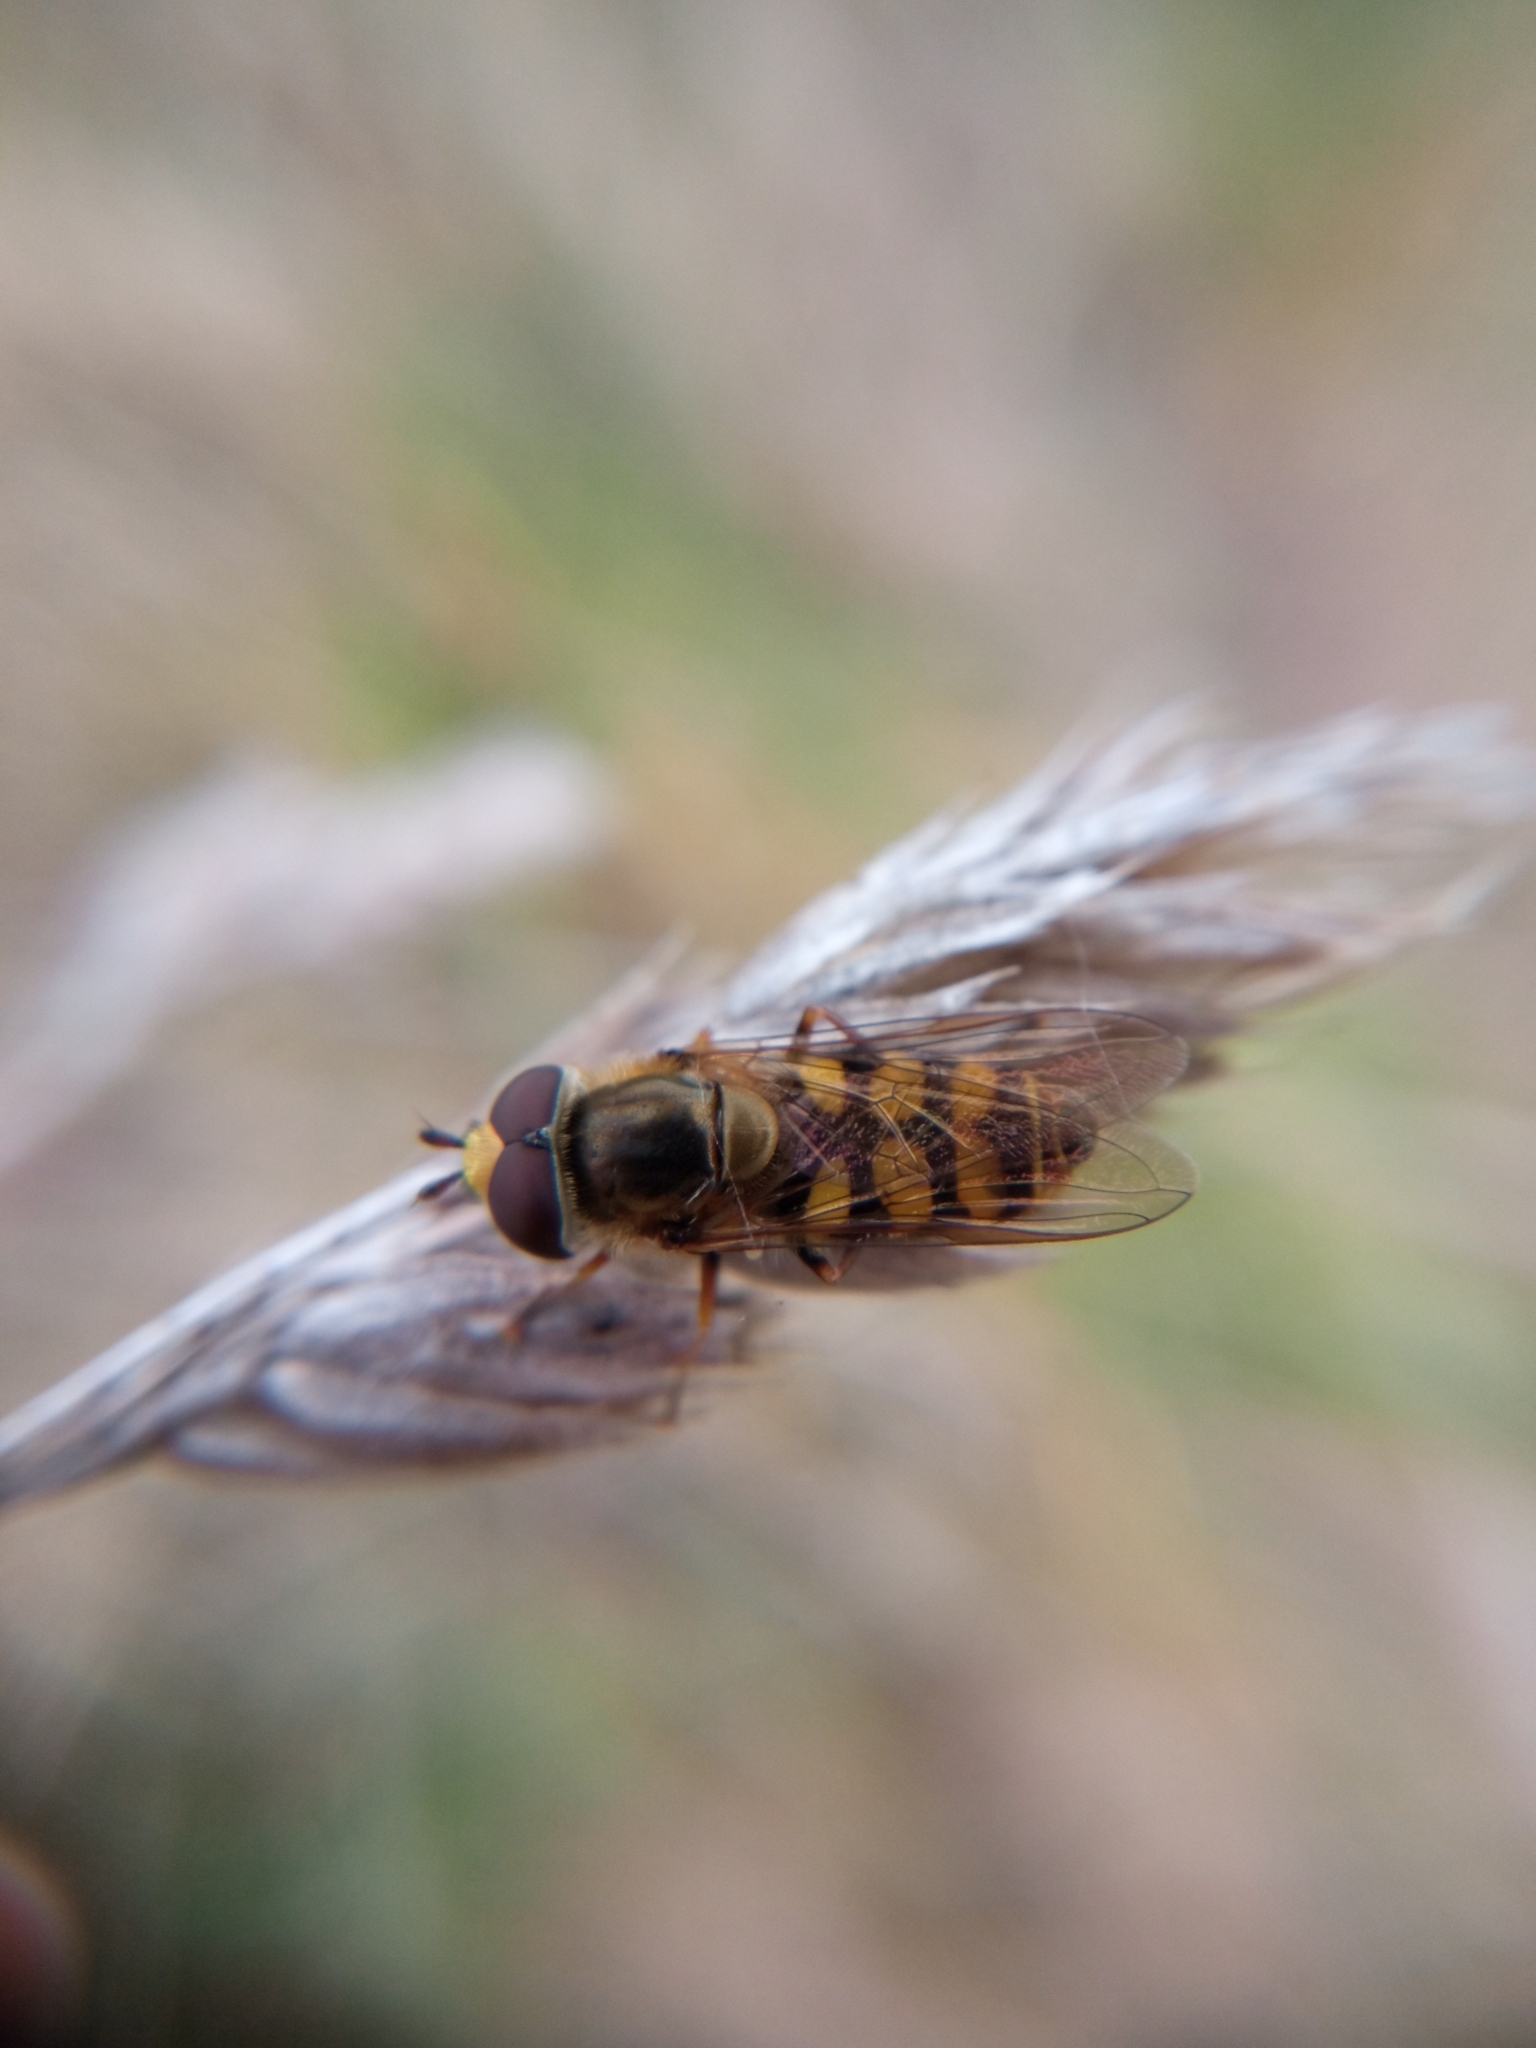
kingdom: Animalia
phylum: Arthropoda
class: Insecta
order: Diptera
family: Syrphidae
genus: Eupeodes
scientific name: Eupeodes corollae
